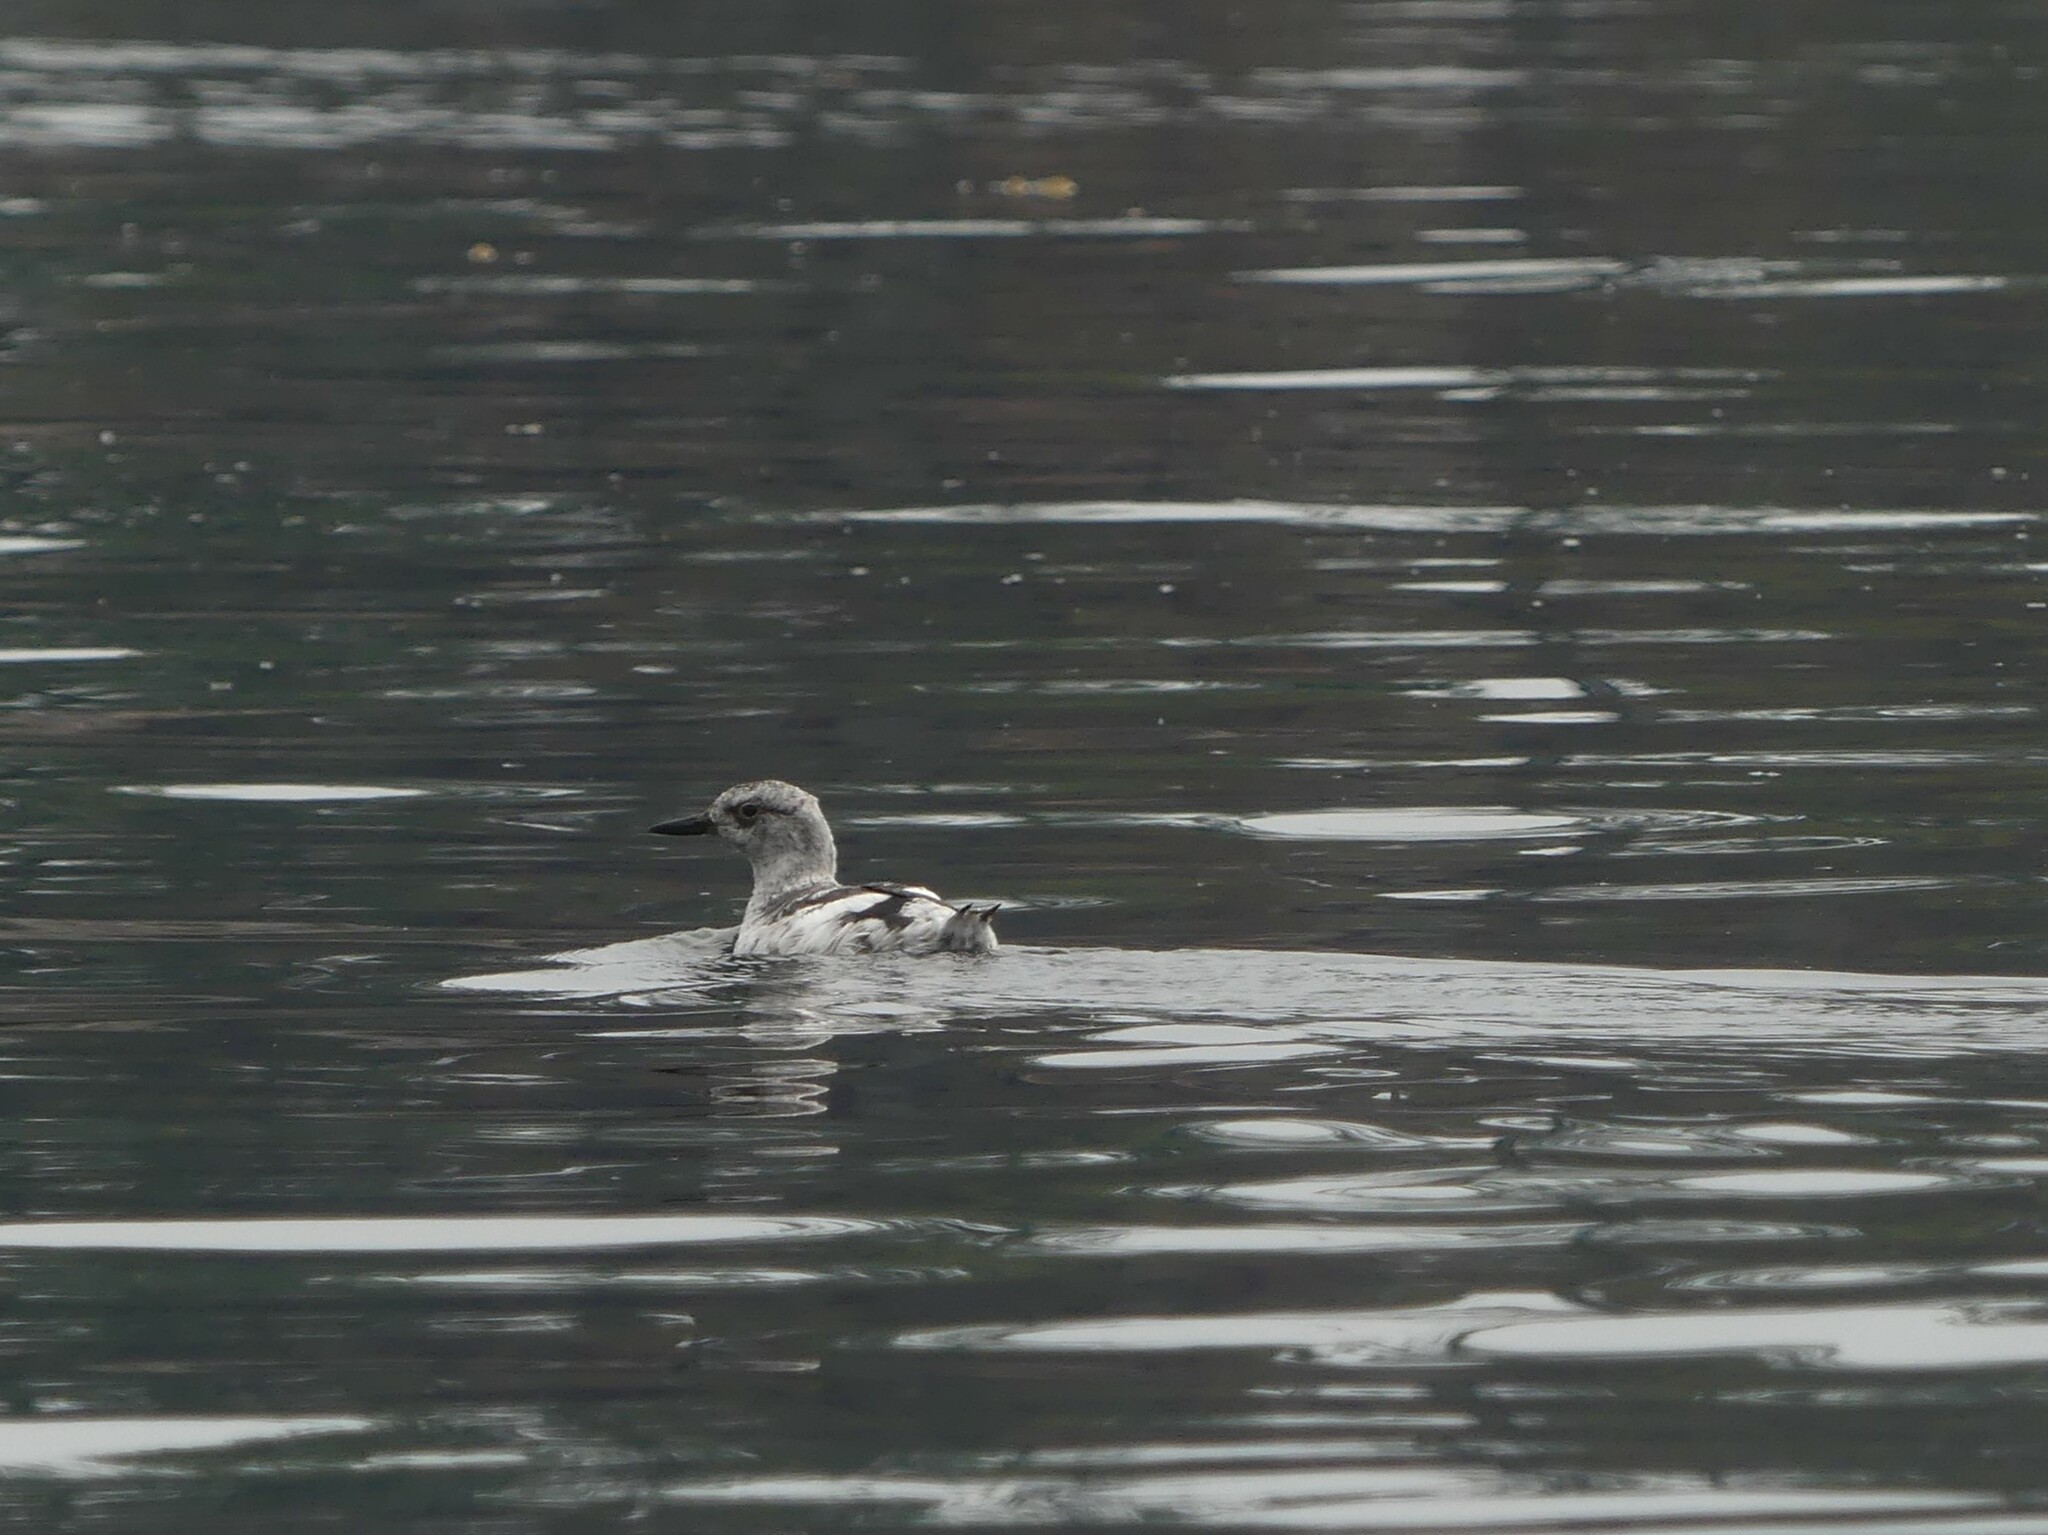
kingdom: Animalia
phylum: Chordata
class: Aves
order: Charadriiformes
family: Alcidae
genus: Cepphus
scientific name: Cepphus columba
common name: Pigeon guillemot
